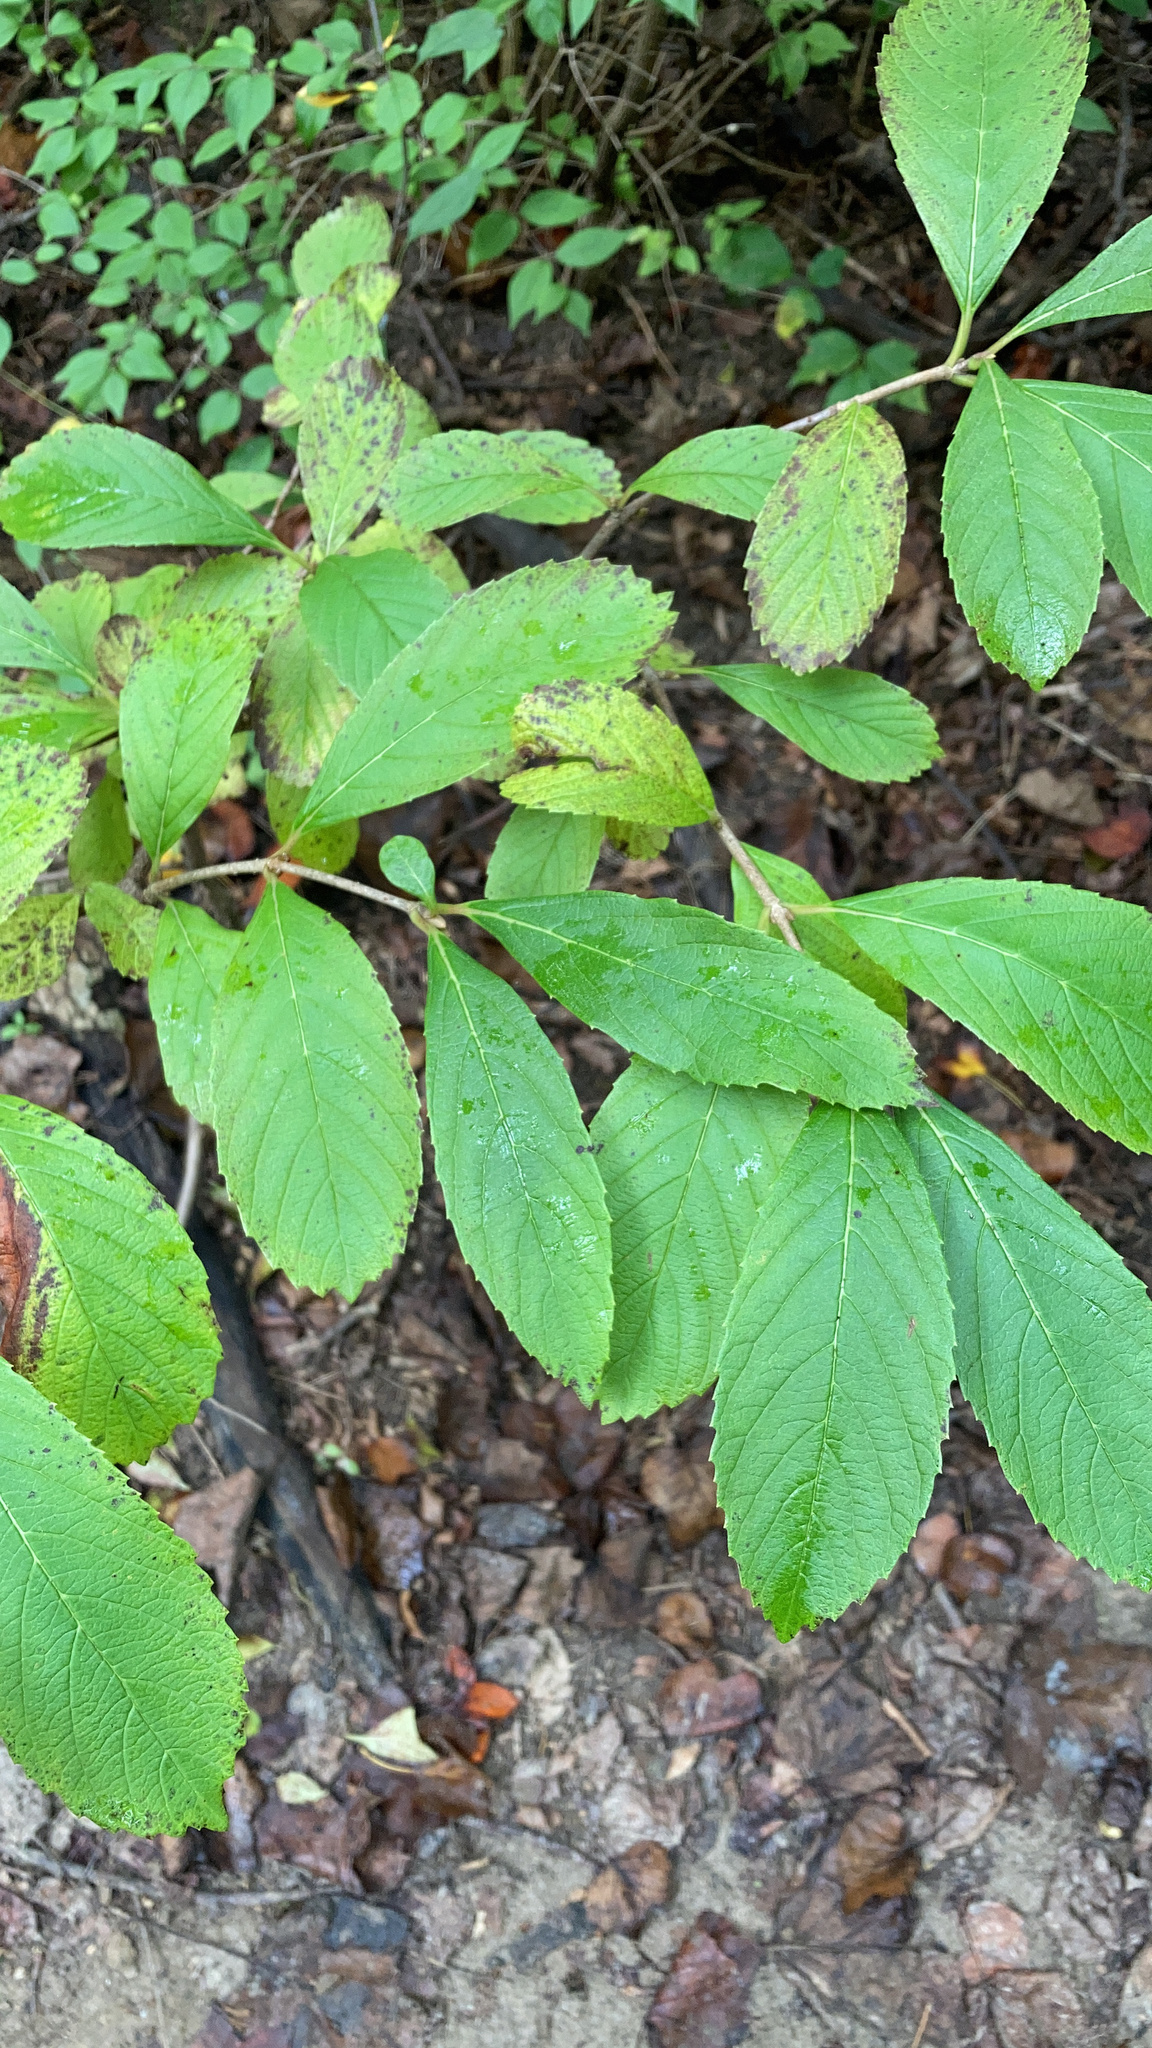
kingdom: Plantae
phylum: Tracheophyta
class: Magnoliopsida
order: Dipsacales
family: Viburnaceae
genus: Viburnum
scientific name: Viburnum sieboldii
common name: Siebold's arrowwood
